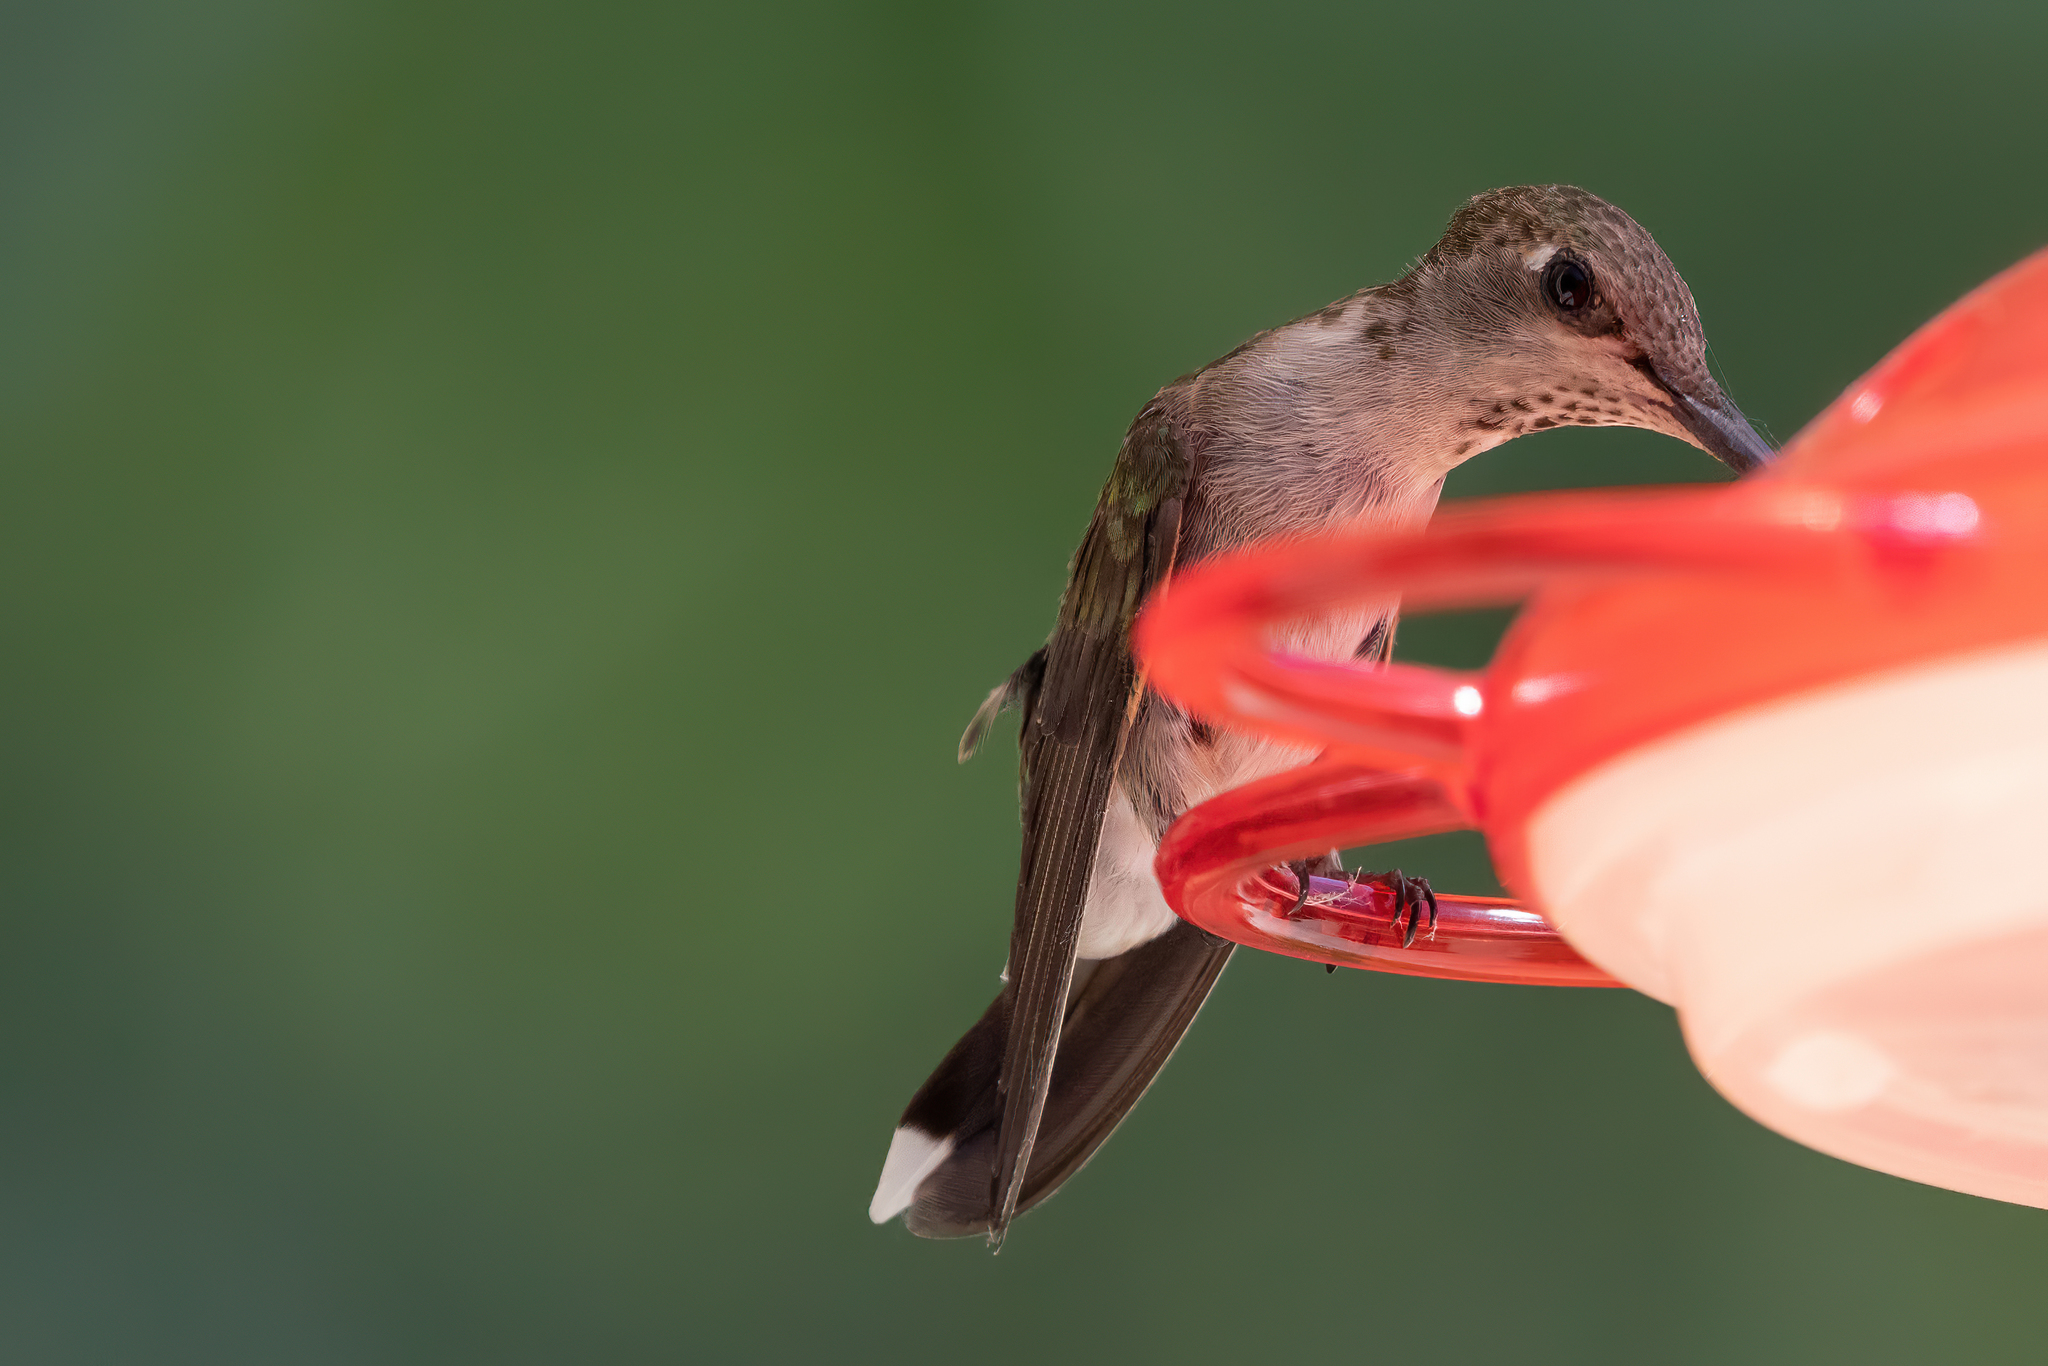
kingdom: Animalia
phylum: Chordata
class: Aves
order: Apodiformes
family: Trochilidae
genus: Archilochus
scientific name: Archilochus alexandri
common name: Black-chinned hummingbird
